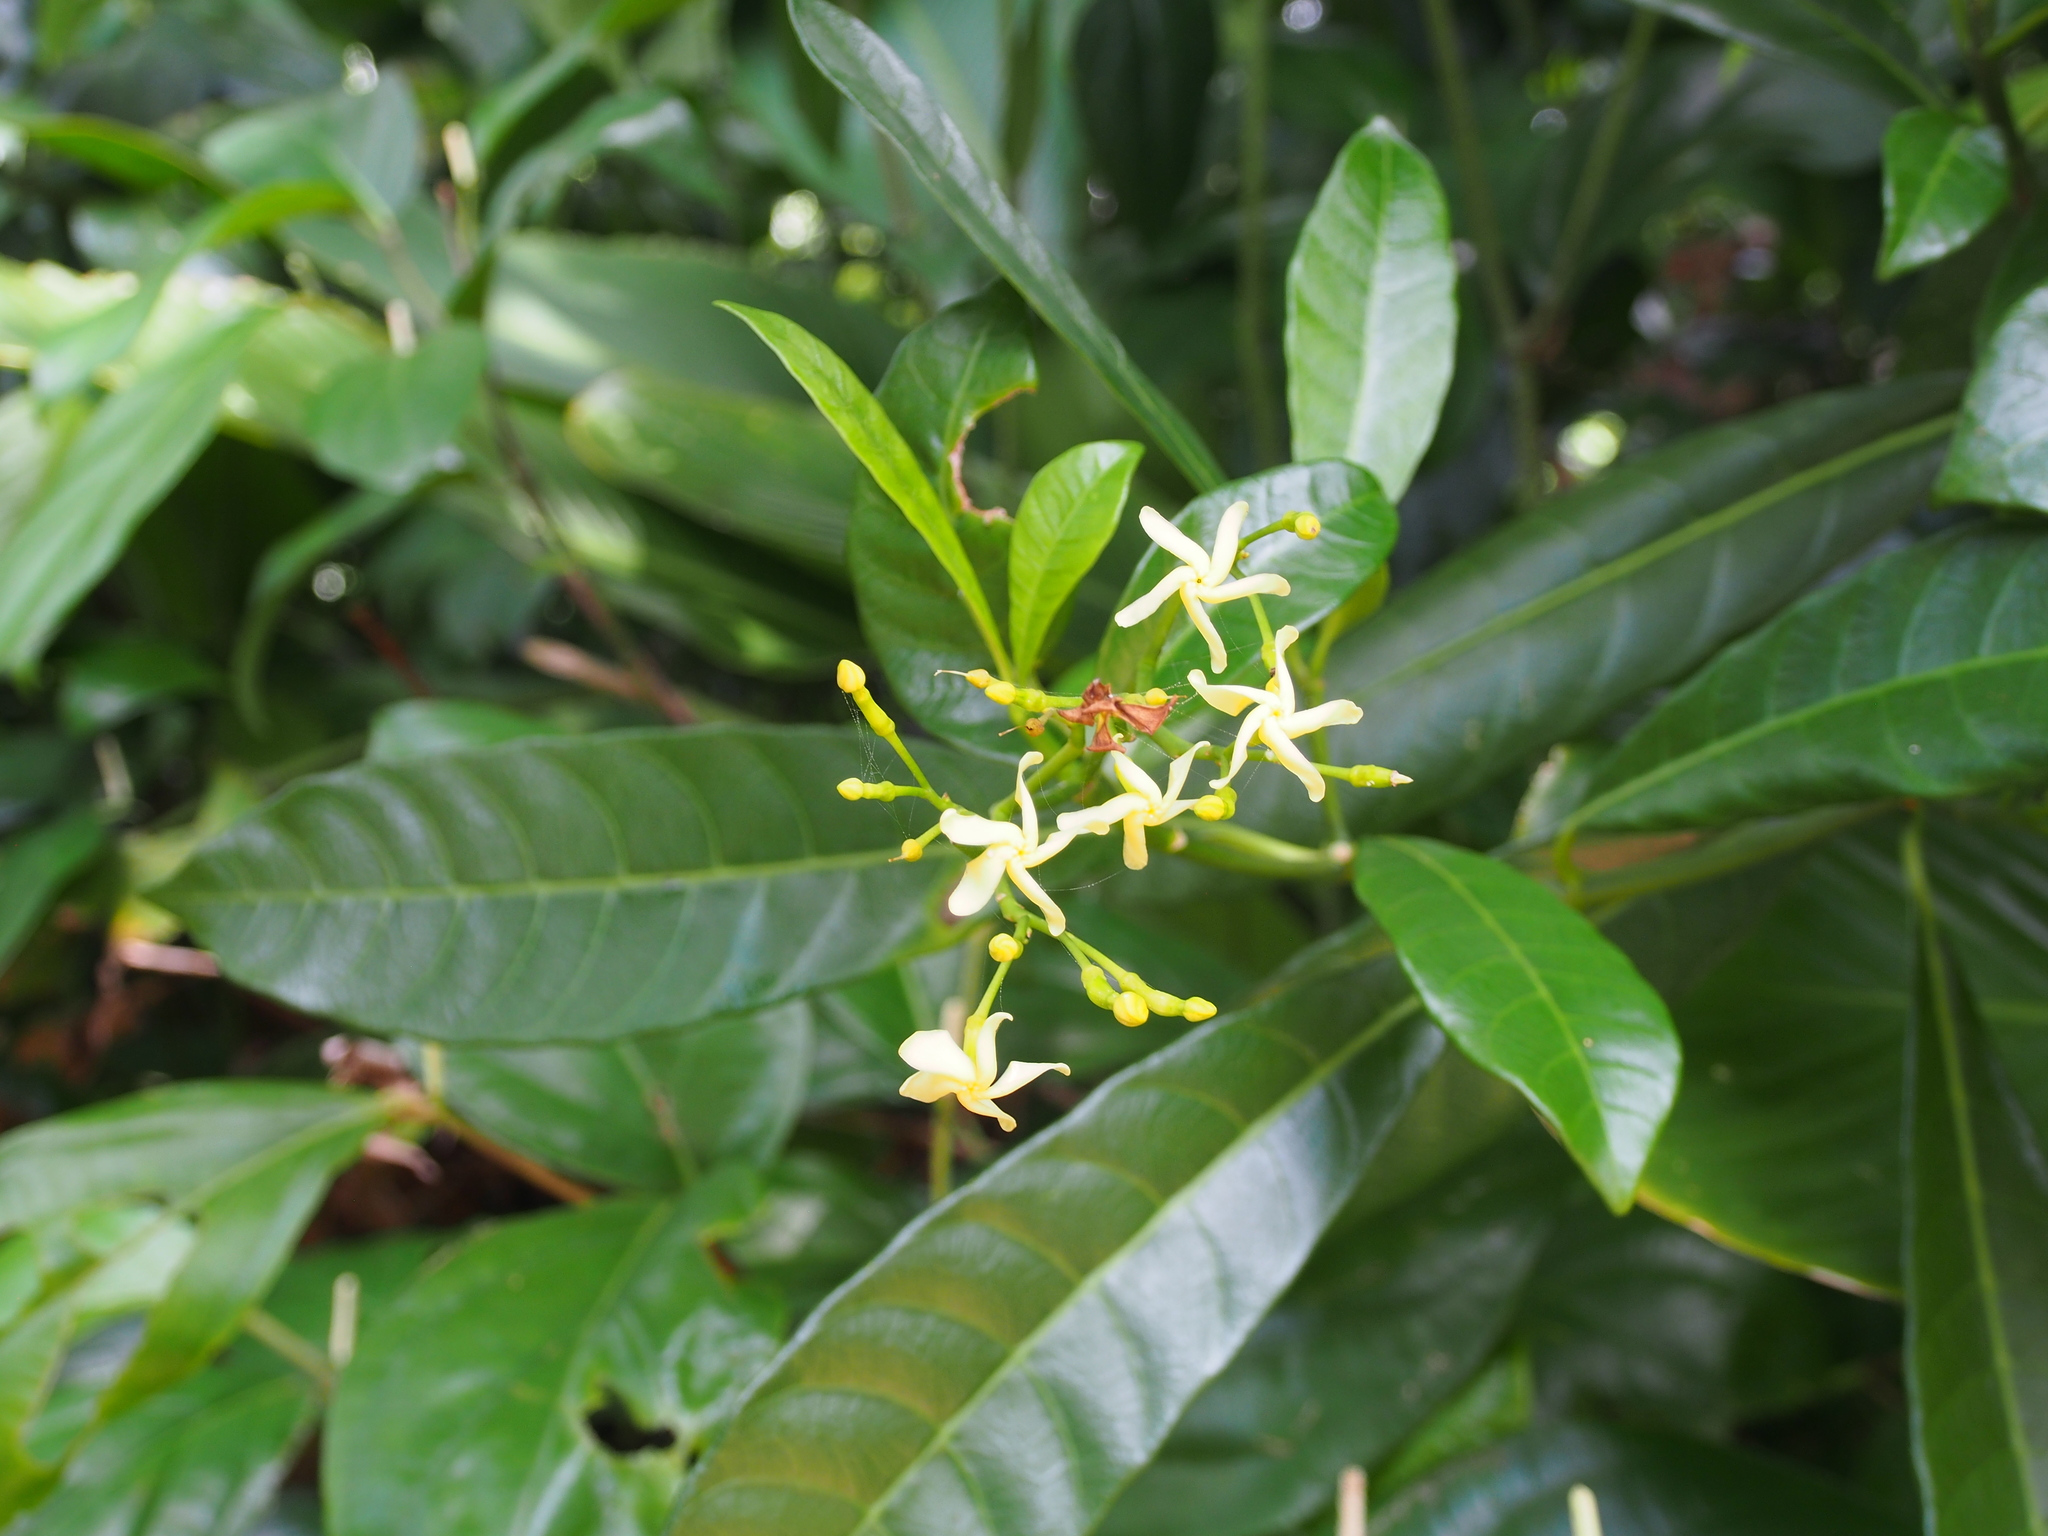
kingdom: Plantae
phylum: Tracheophyta
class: Magnoliopsida
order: Gentianales
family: Apocynaceae
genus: Tabernaemontana
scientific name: Tabernaemontana alba
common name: White milkwood
